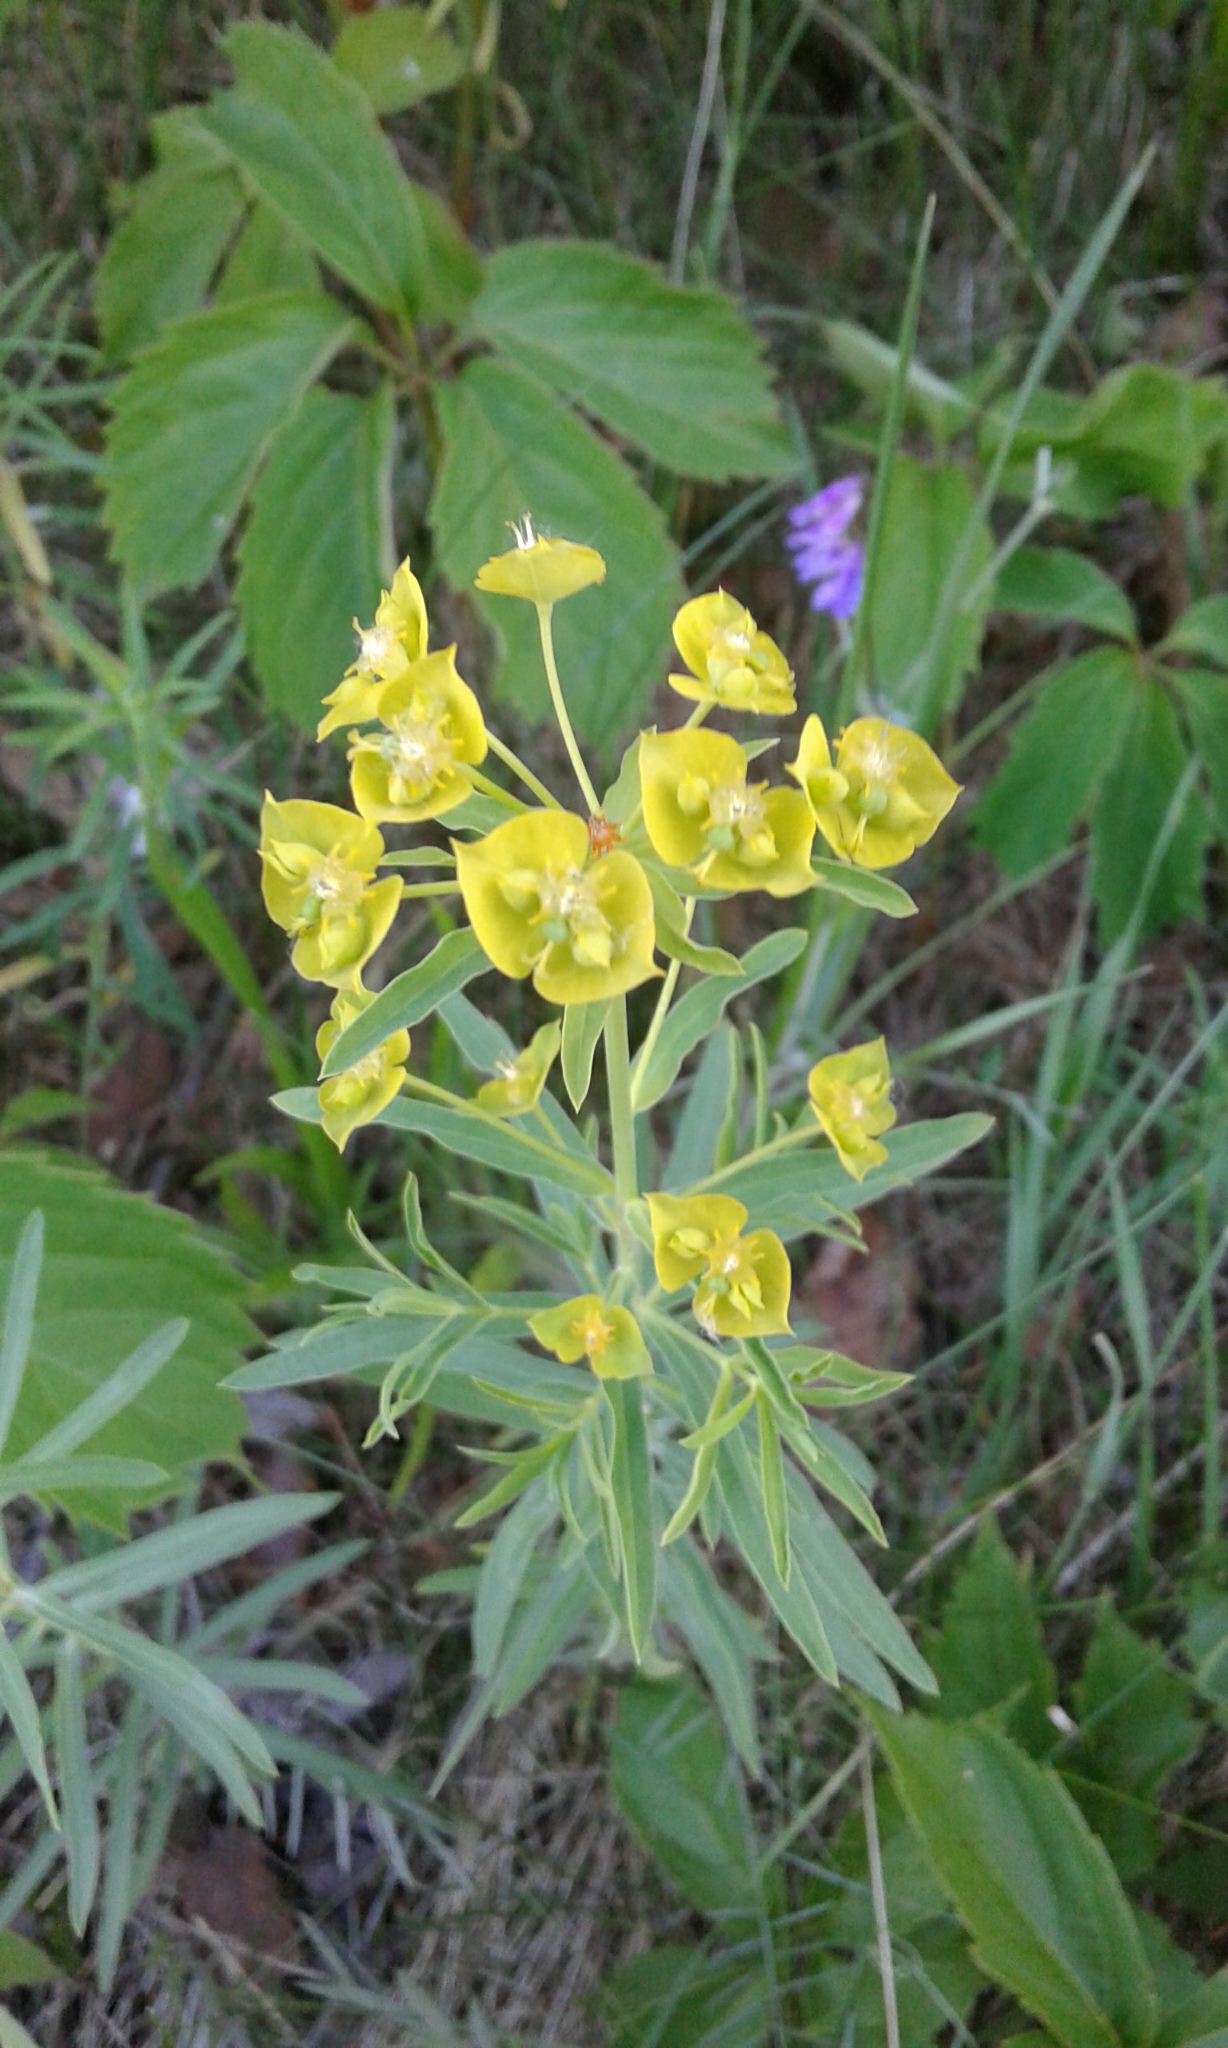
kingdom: Plantae
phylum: Tracheophyta
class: Magnoliopsida
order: Malpighiales
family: Euphorbiaceae
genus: Euphorbia
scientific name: Euphorbia virgata
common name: Leafy spurge
